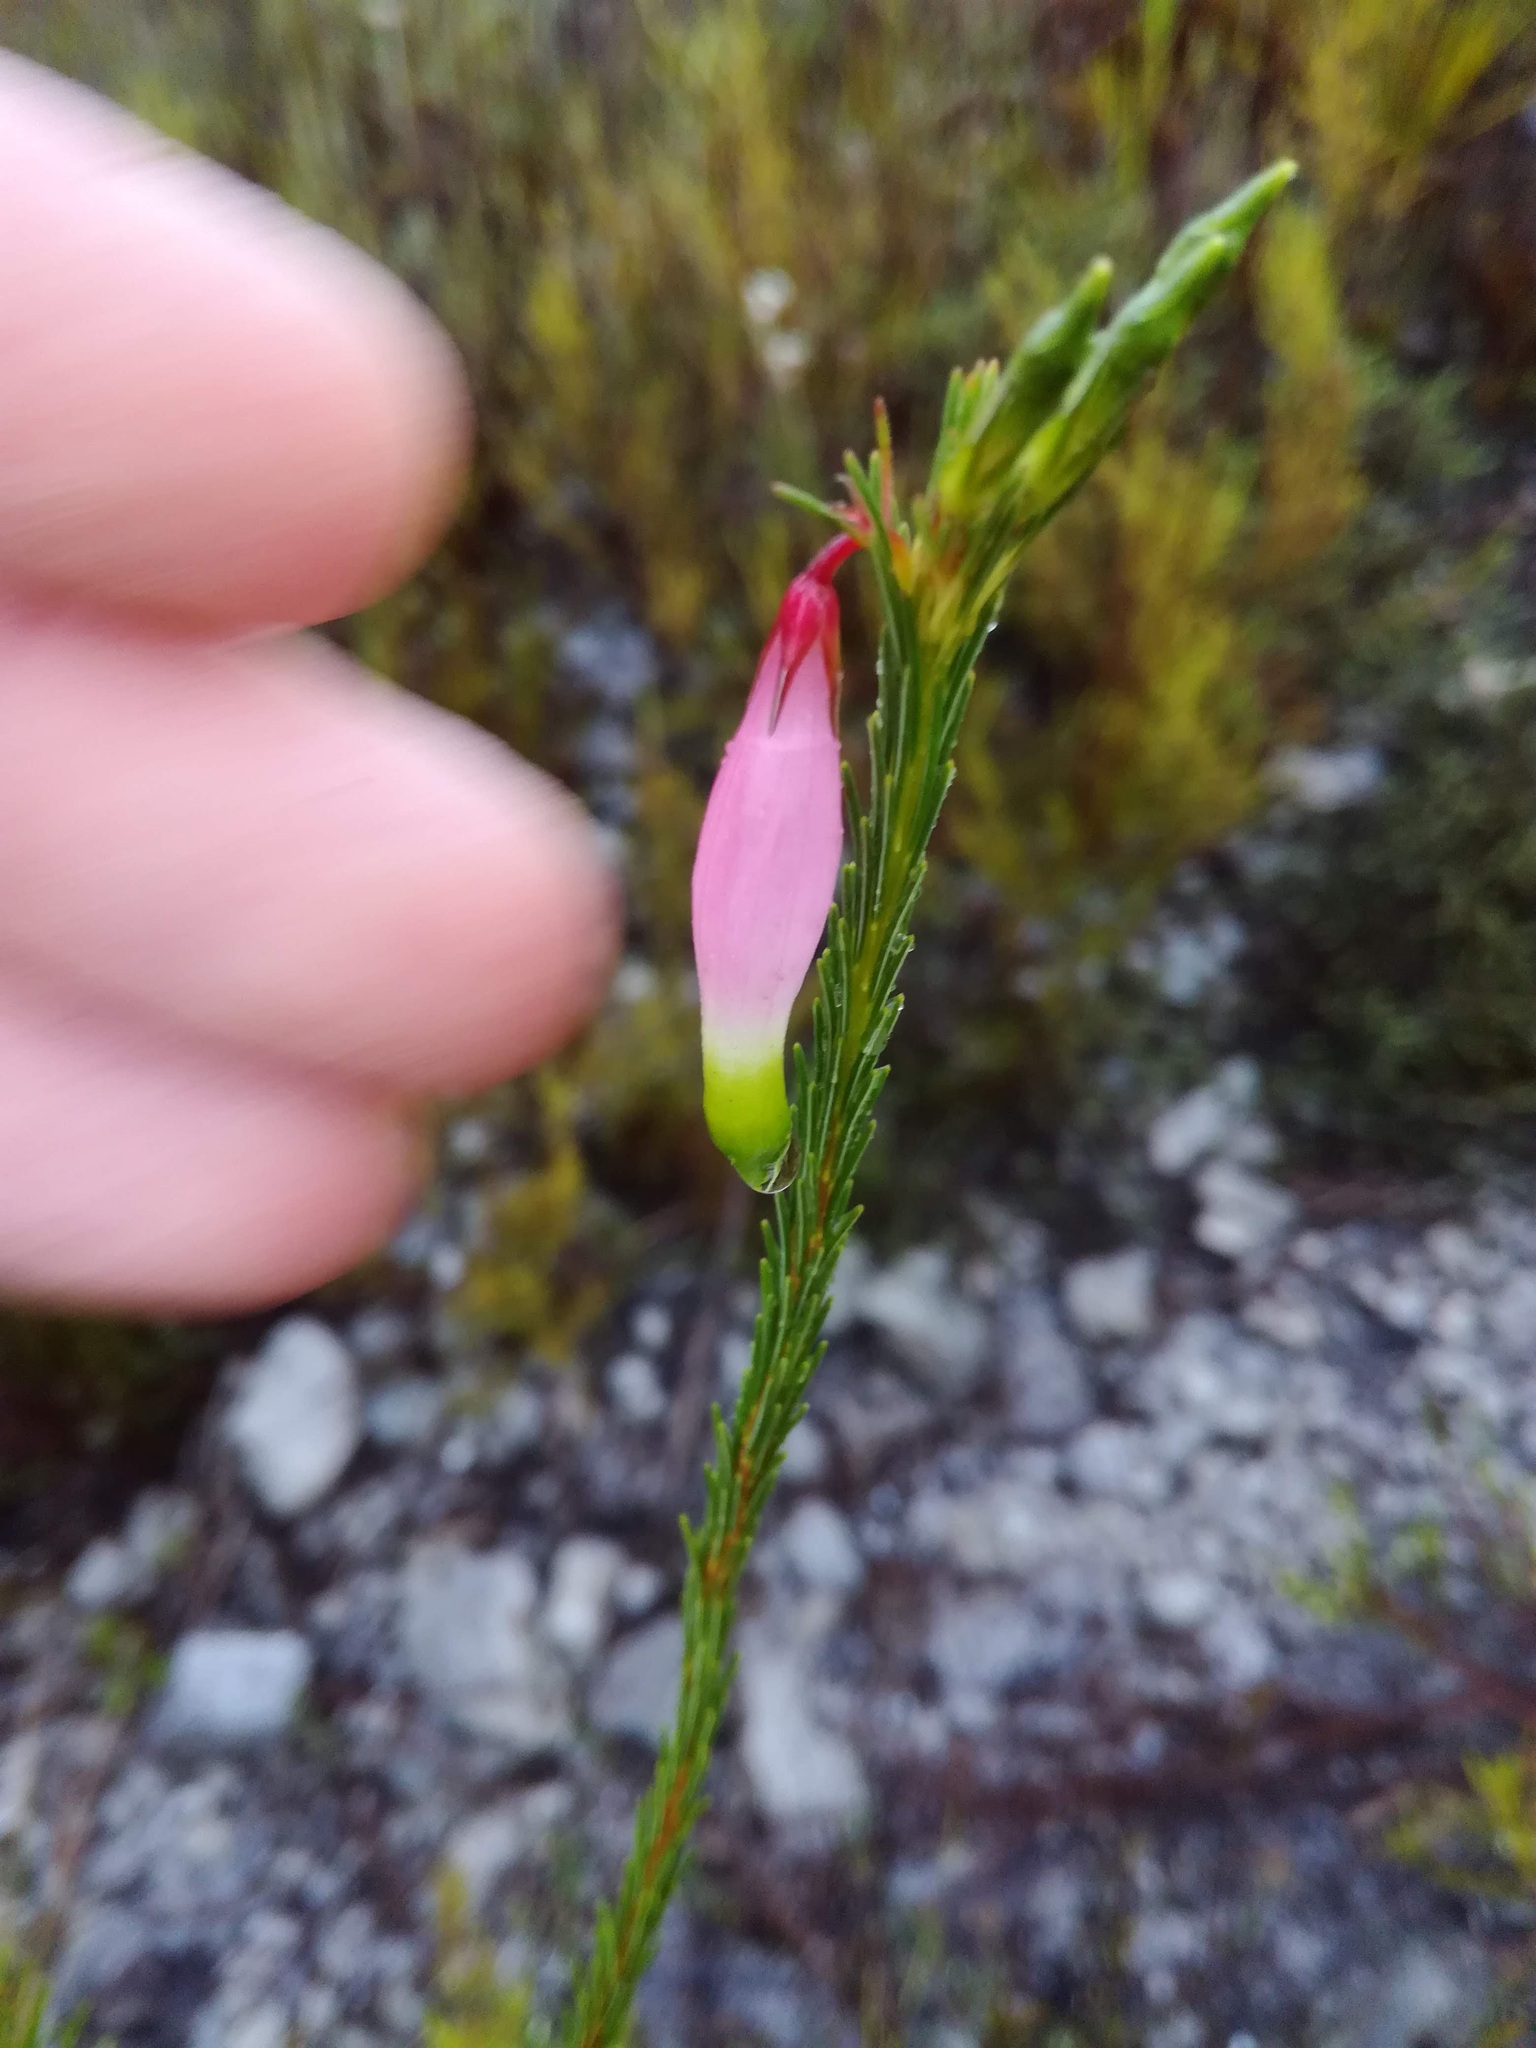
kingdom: Plantae
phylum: Tracheophyta
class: Magnoliopsida
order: Ericales
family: Ericaceae
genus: Erica
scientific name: Erica fascicularis
